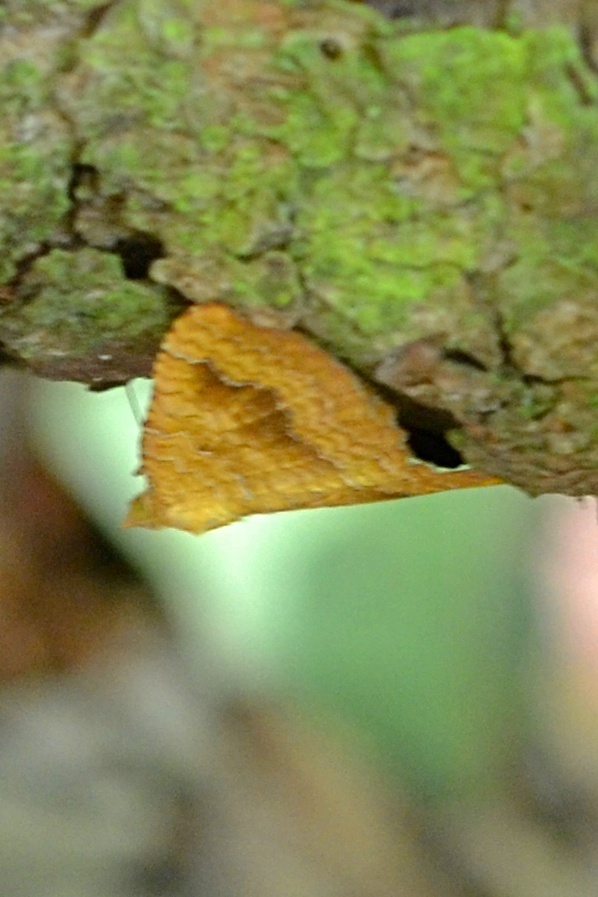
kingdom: Animalia
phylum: Arthropoda
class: Insecta
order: Lepidoptera
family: Geometridae
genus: Camptogramma
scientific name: Camptogramma bilineata
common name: Yellow shell
